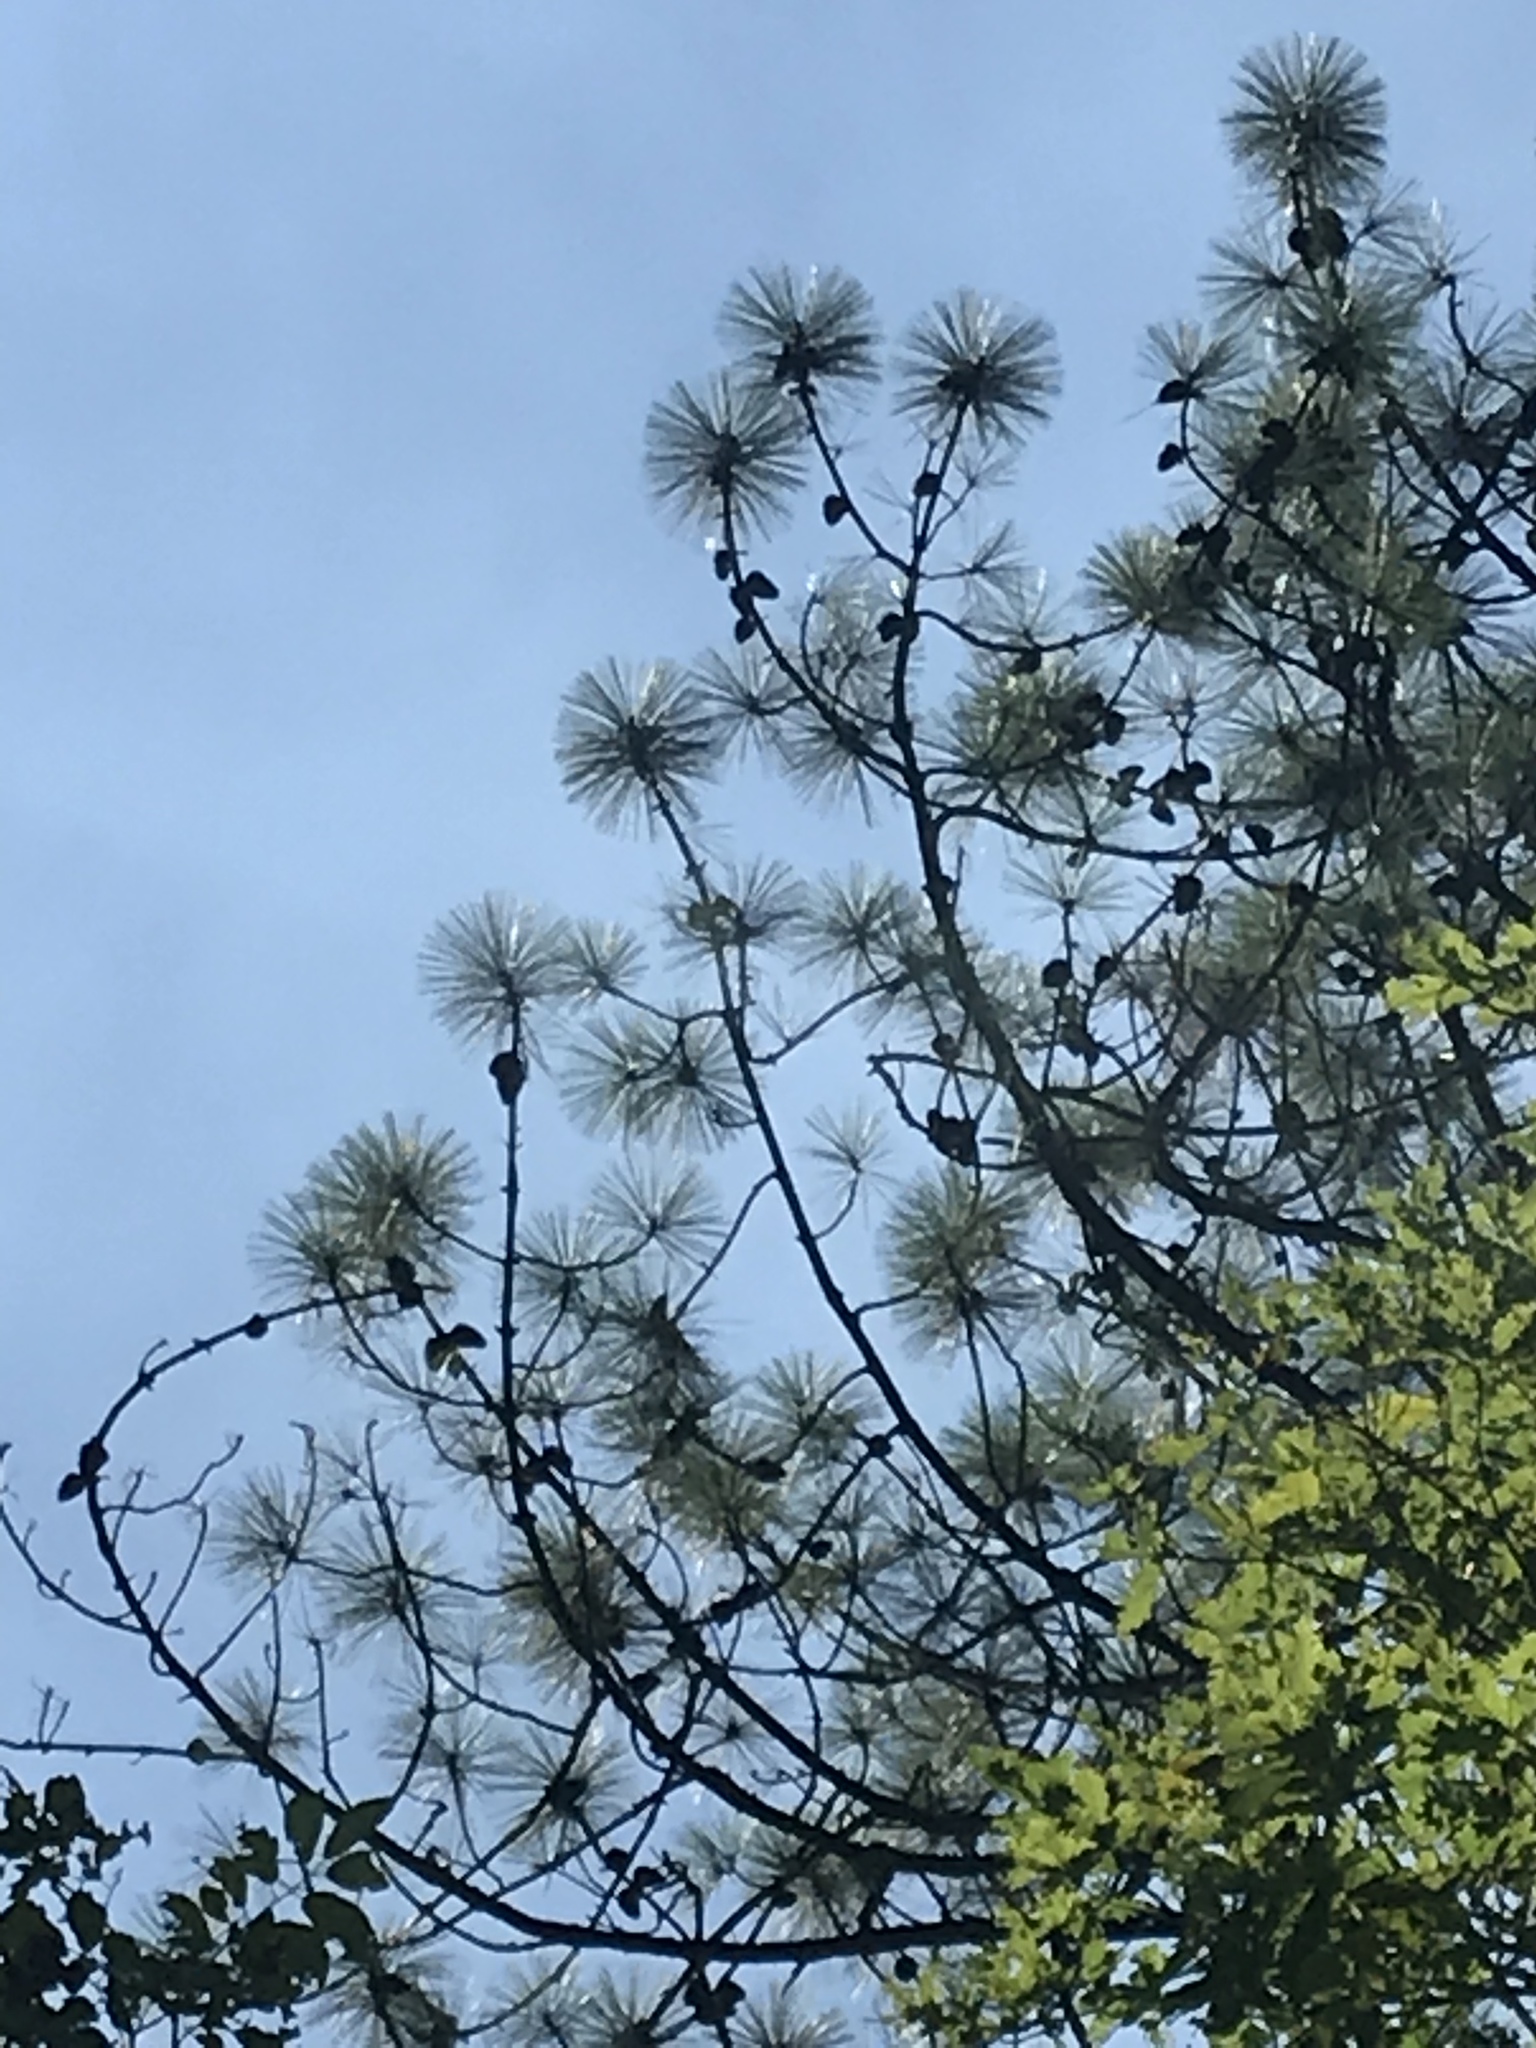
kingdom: Plantae
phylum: Tracheophyta
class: Pinopsida
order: Pinales
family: Pinaceae
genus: Pinus
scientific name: Pinus pseudostrobus
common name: False weymouth pine
